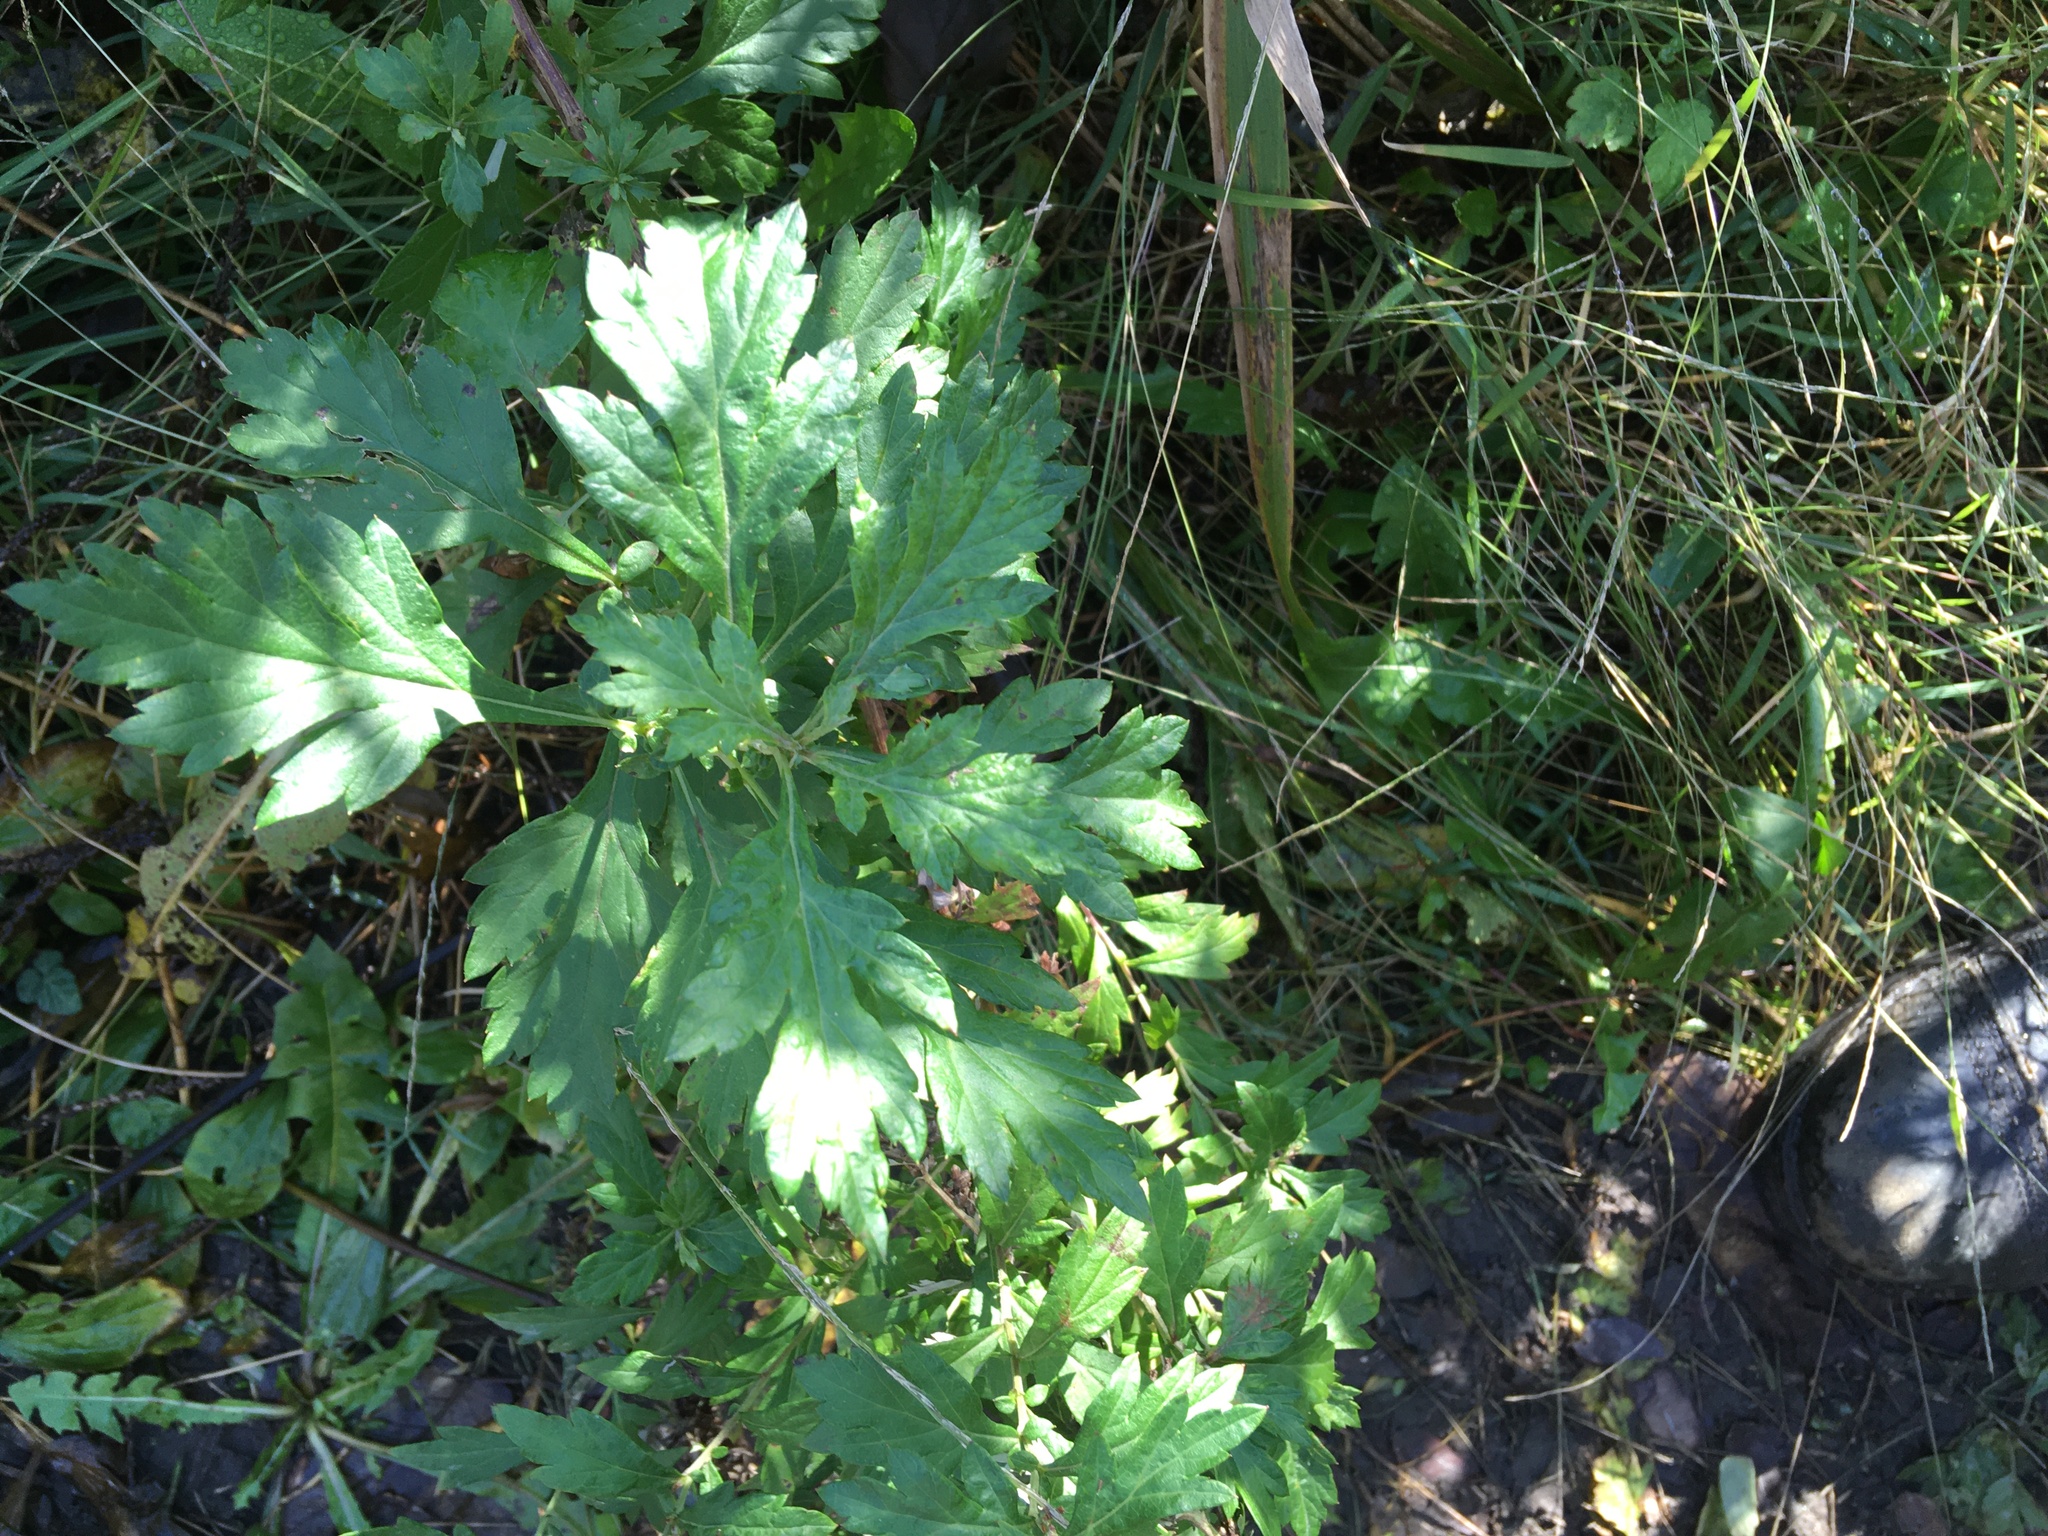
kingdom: Plantae
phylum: Tracheophyta
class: Magnoliopsida
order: Asterales
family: Asteraceae
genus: Artemisia
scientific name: Artemisia vulgaris
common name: Mugwort
